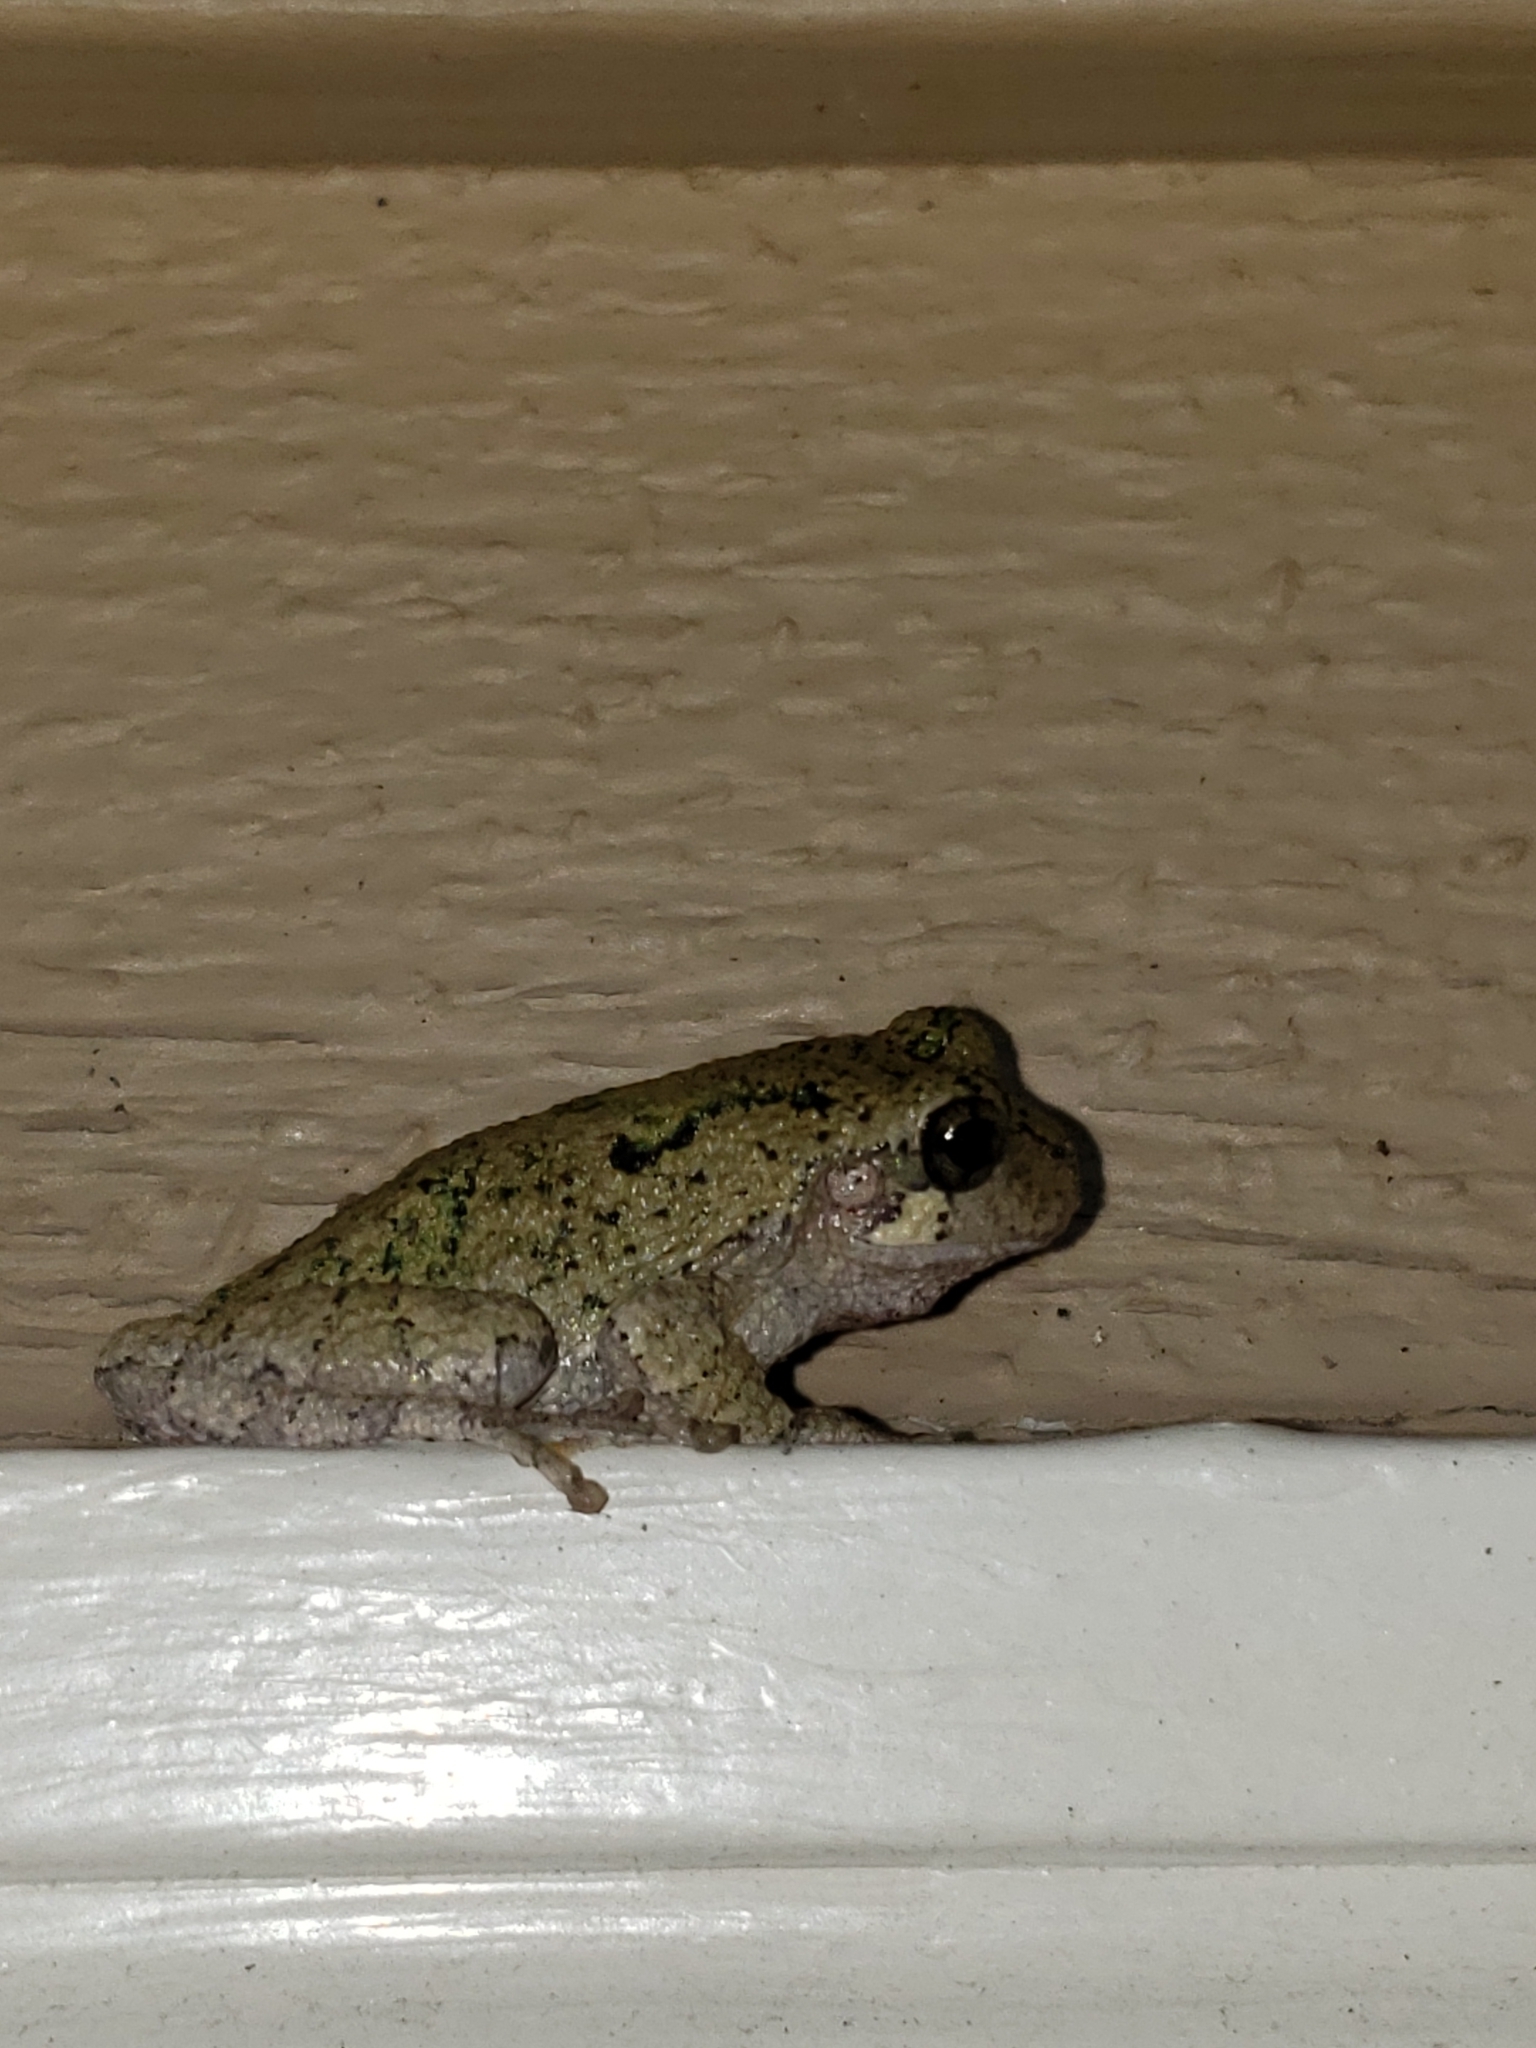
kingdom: Animalia
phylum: Chordata
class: Amphibia
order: Anura
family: Hylidae
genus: Hyla
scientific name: Hyla
